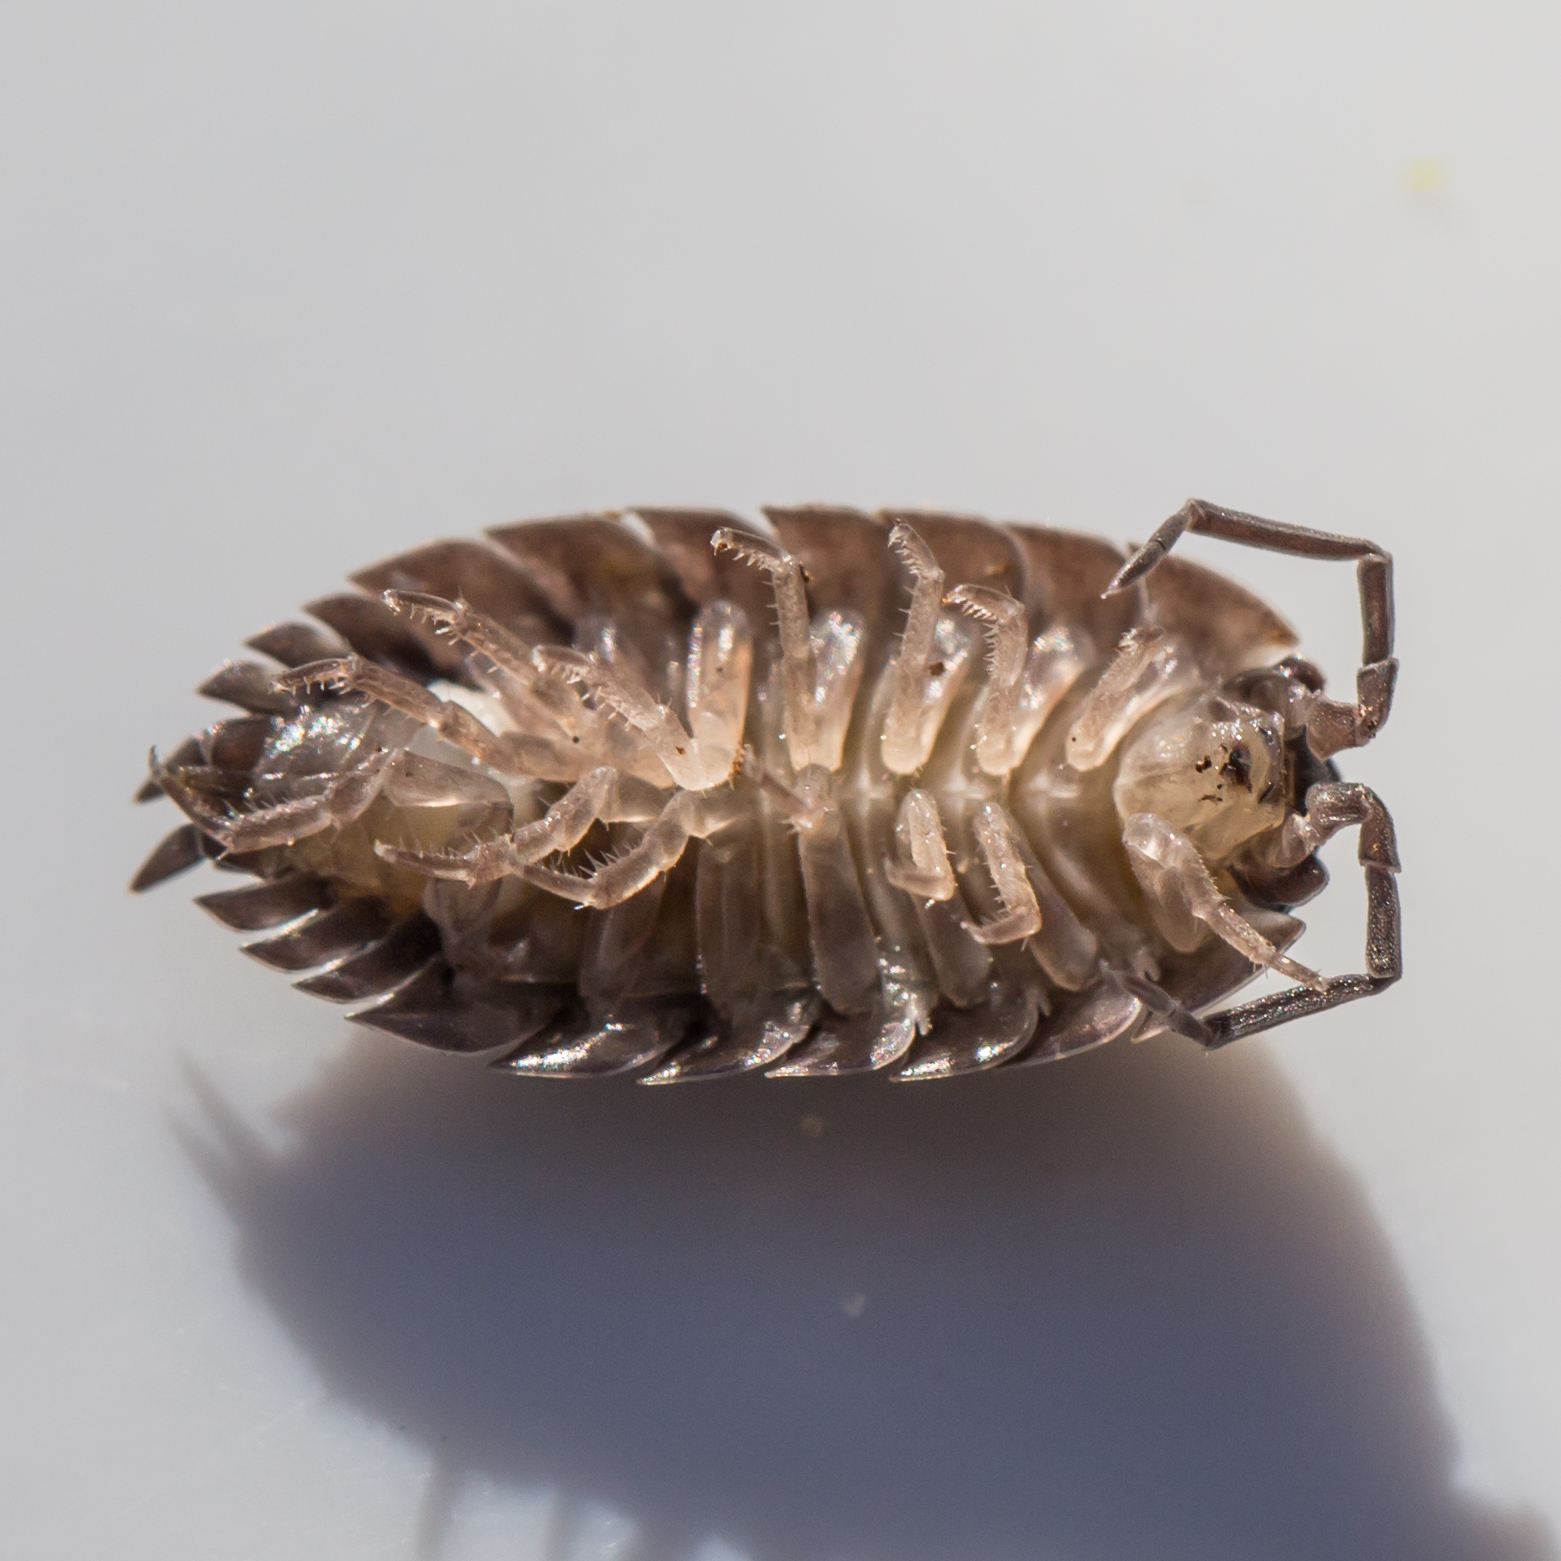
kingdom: Animalia
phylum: Arthropoda
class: Malacostraca
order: Isopoda
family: Porcellionidae
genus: Porcellio
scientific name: Porcellio scaber
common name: Common rough woodlouse
